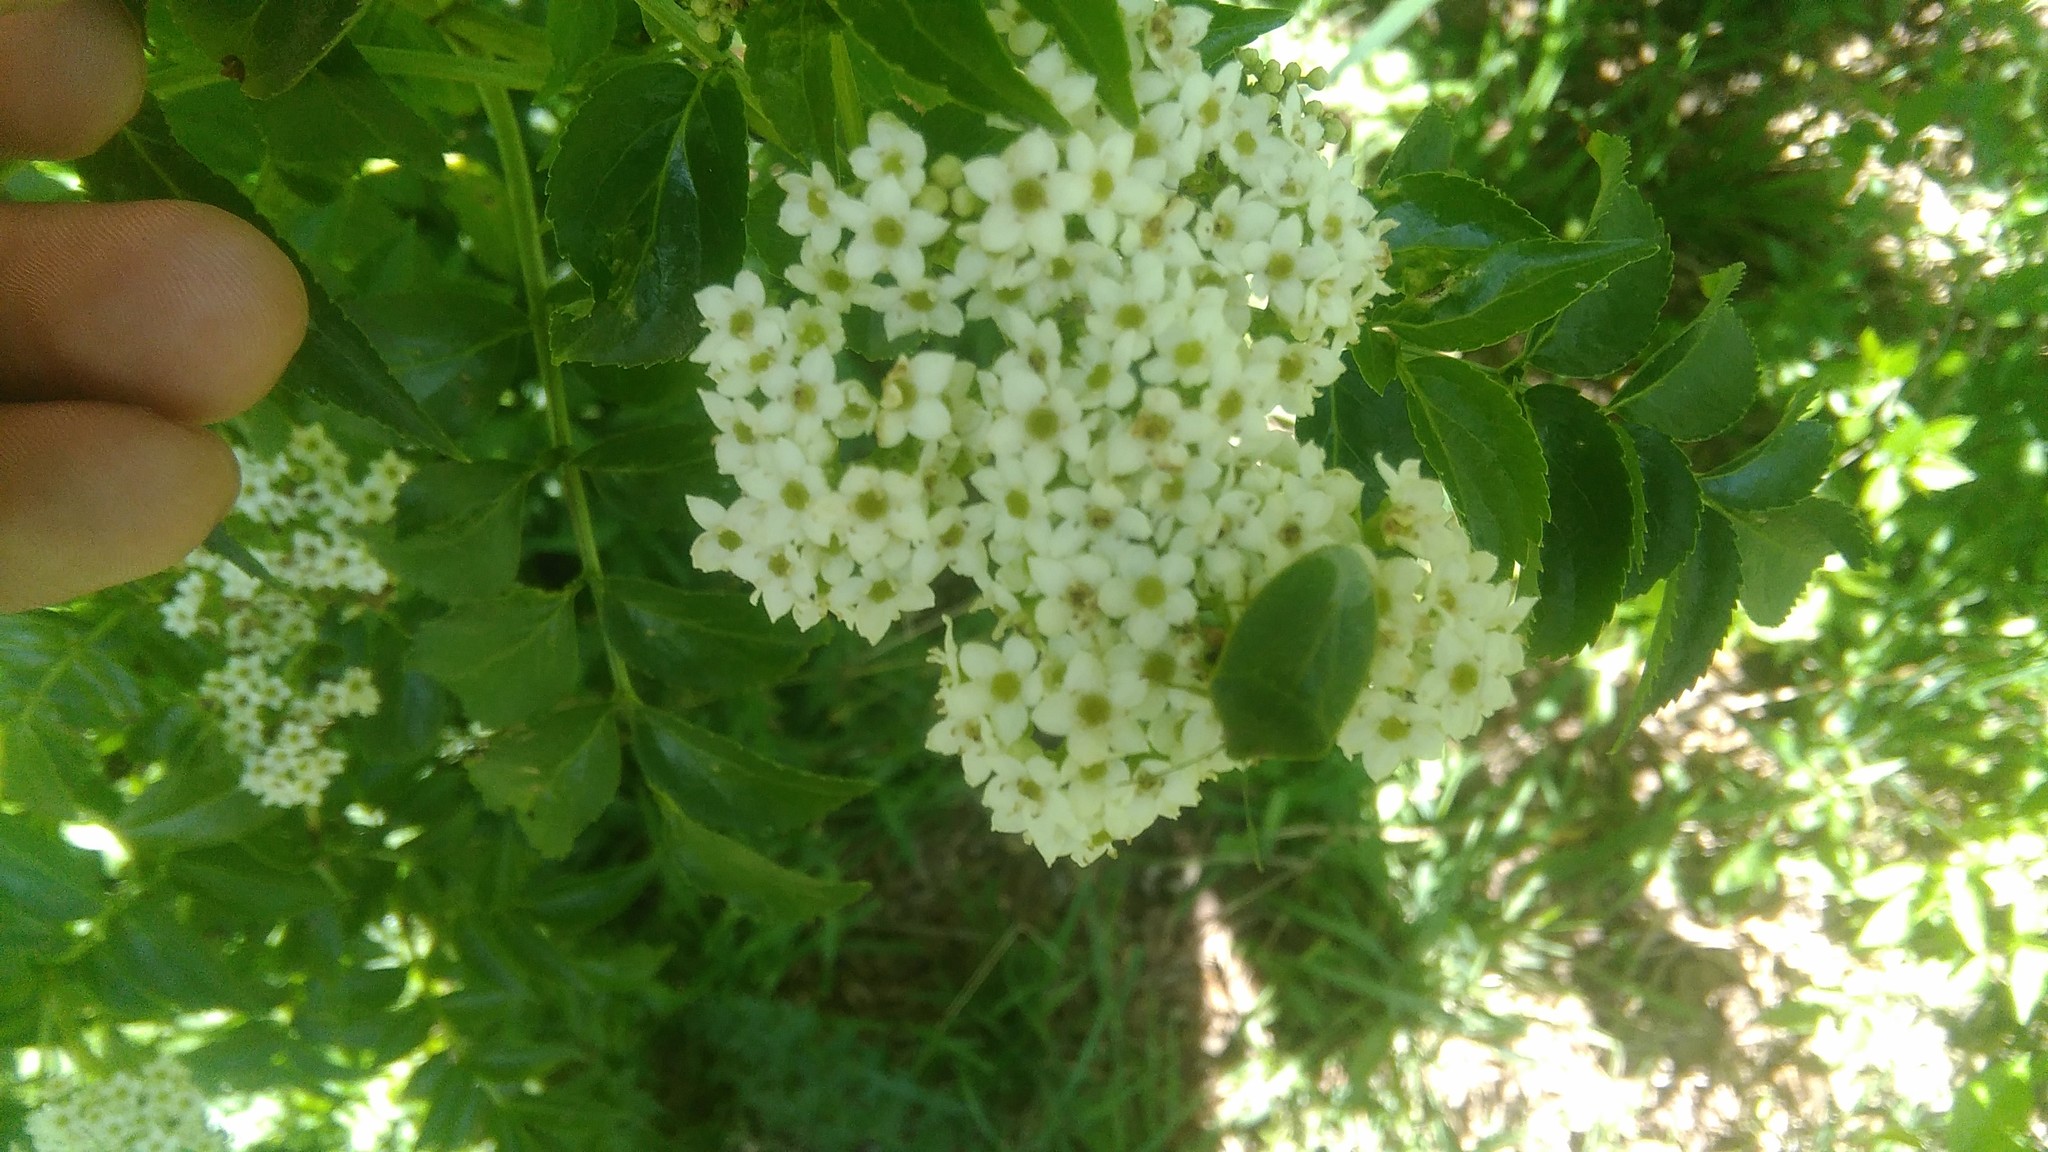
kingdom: Animalia
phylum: Arthropoda
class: Insecta
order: Hemiptera
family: Pentatomidae
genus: Chinavia
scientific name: Chinavia
